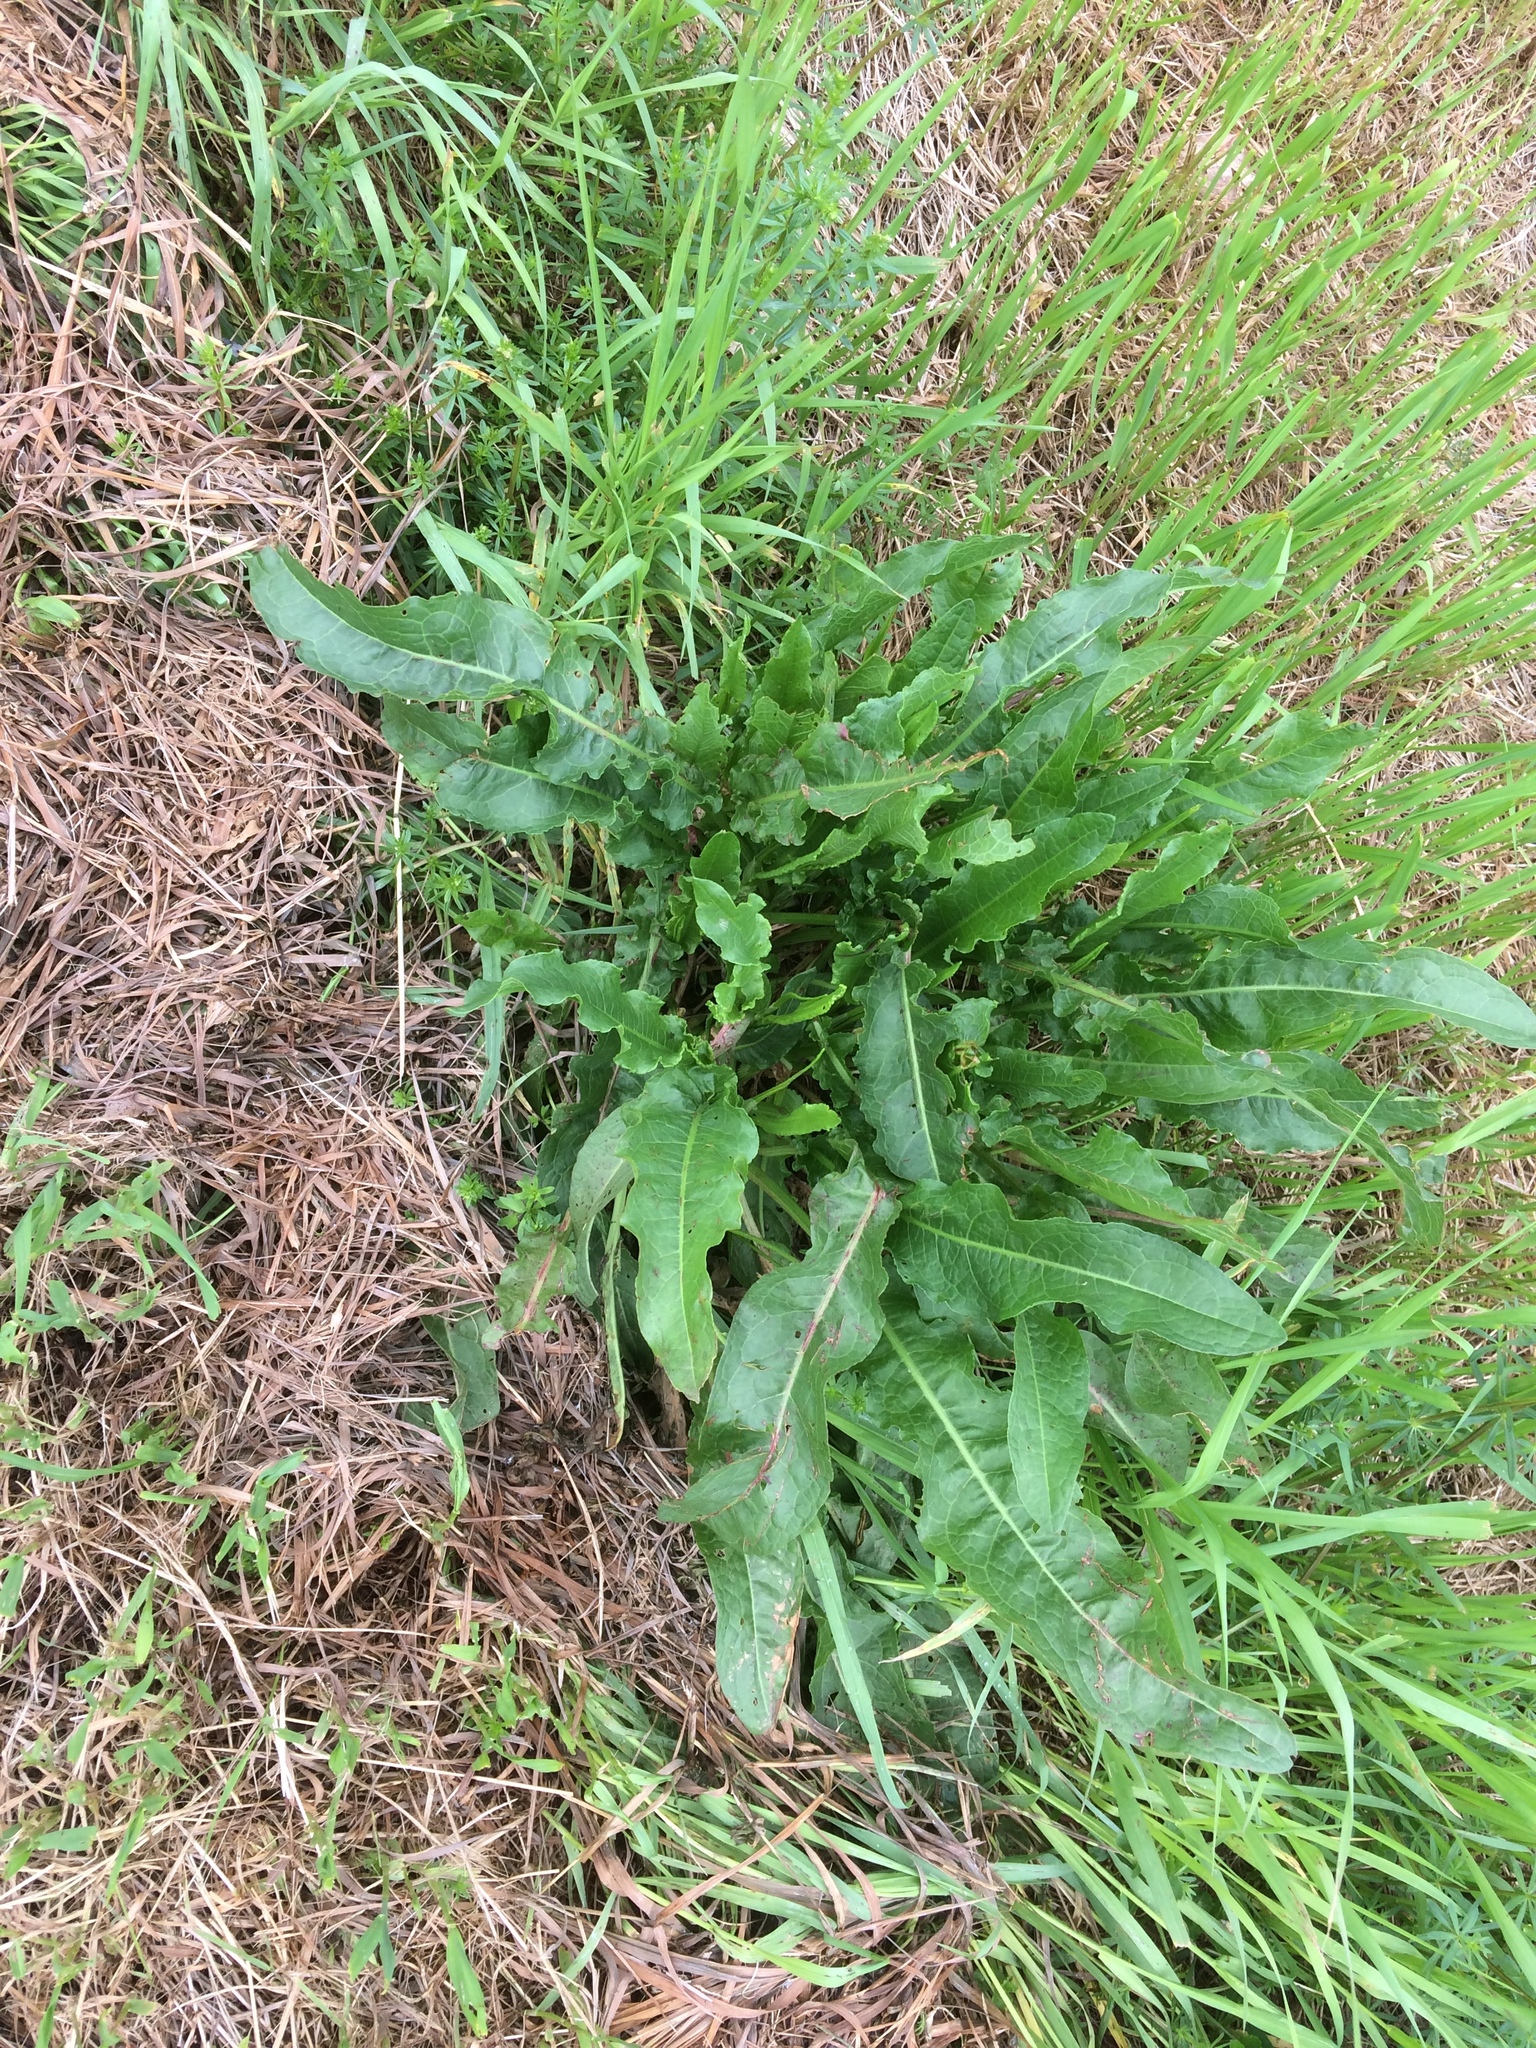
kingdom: Plantae
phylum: Tracheophyta
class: Magnoliopsida
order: Caryophyllales
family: Polygonaceae
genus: Rumex
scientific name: Rumex crispus
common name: Curled dock
